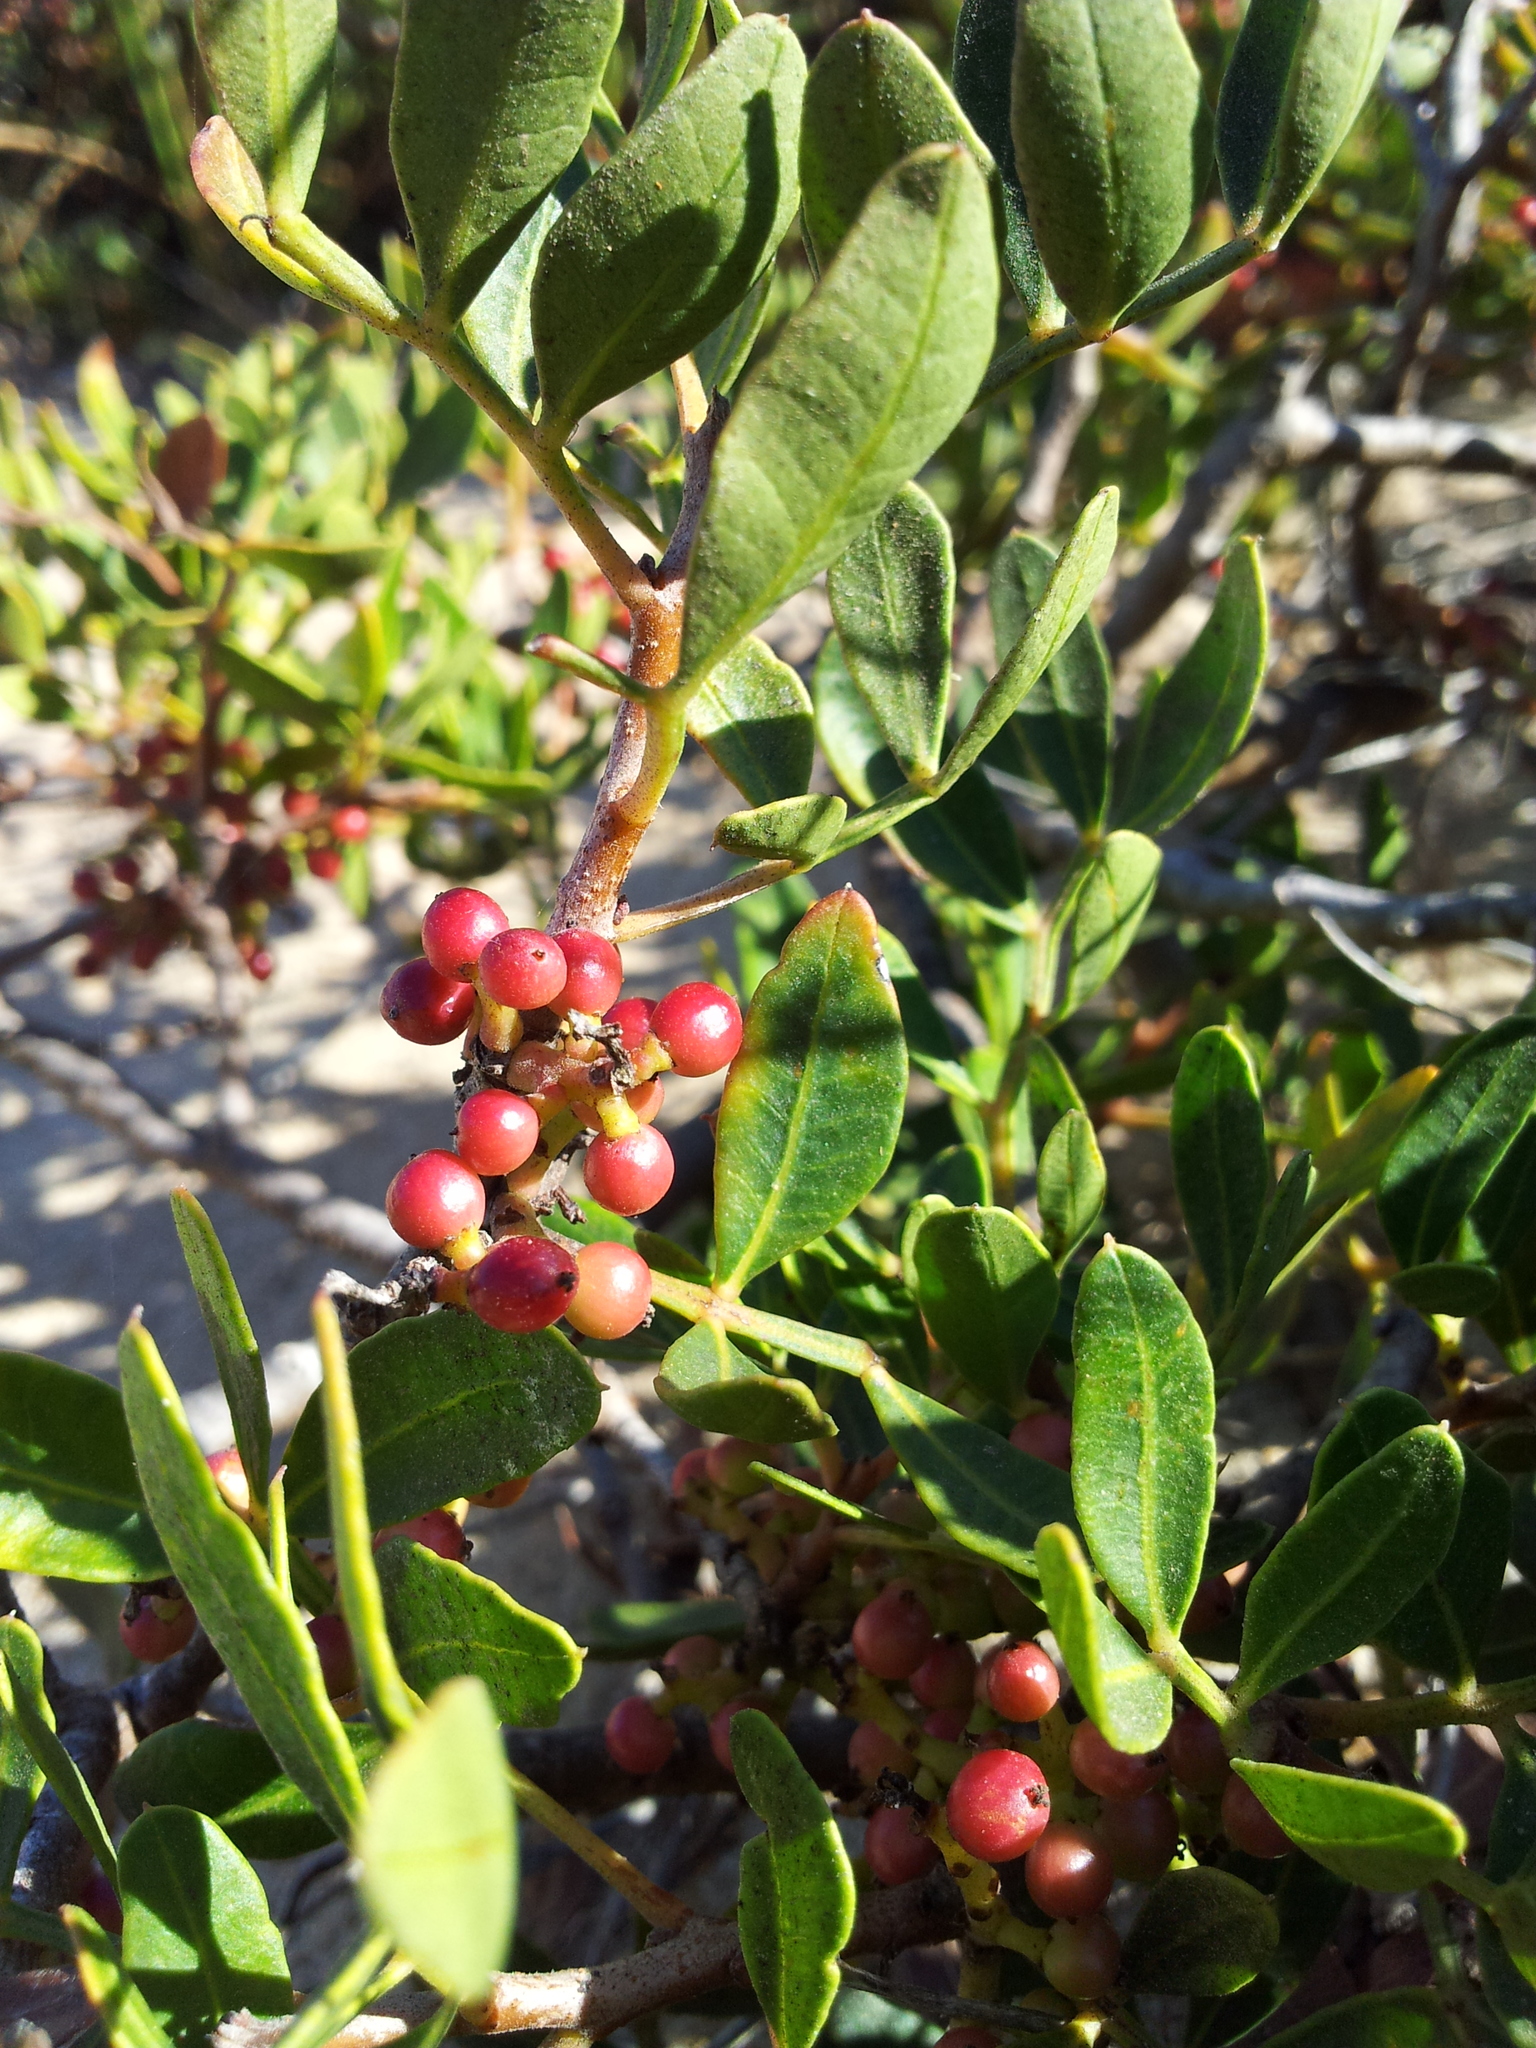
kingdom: Plantae
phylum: Tracheophyta
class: Magnoliopsida
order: Sapindales
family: Anacardiaceae
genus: Pistacia
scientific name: Pistacia lentiscus
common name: Lentisk
